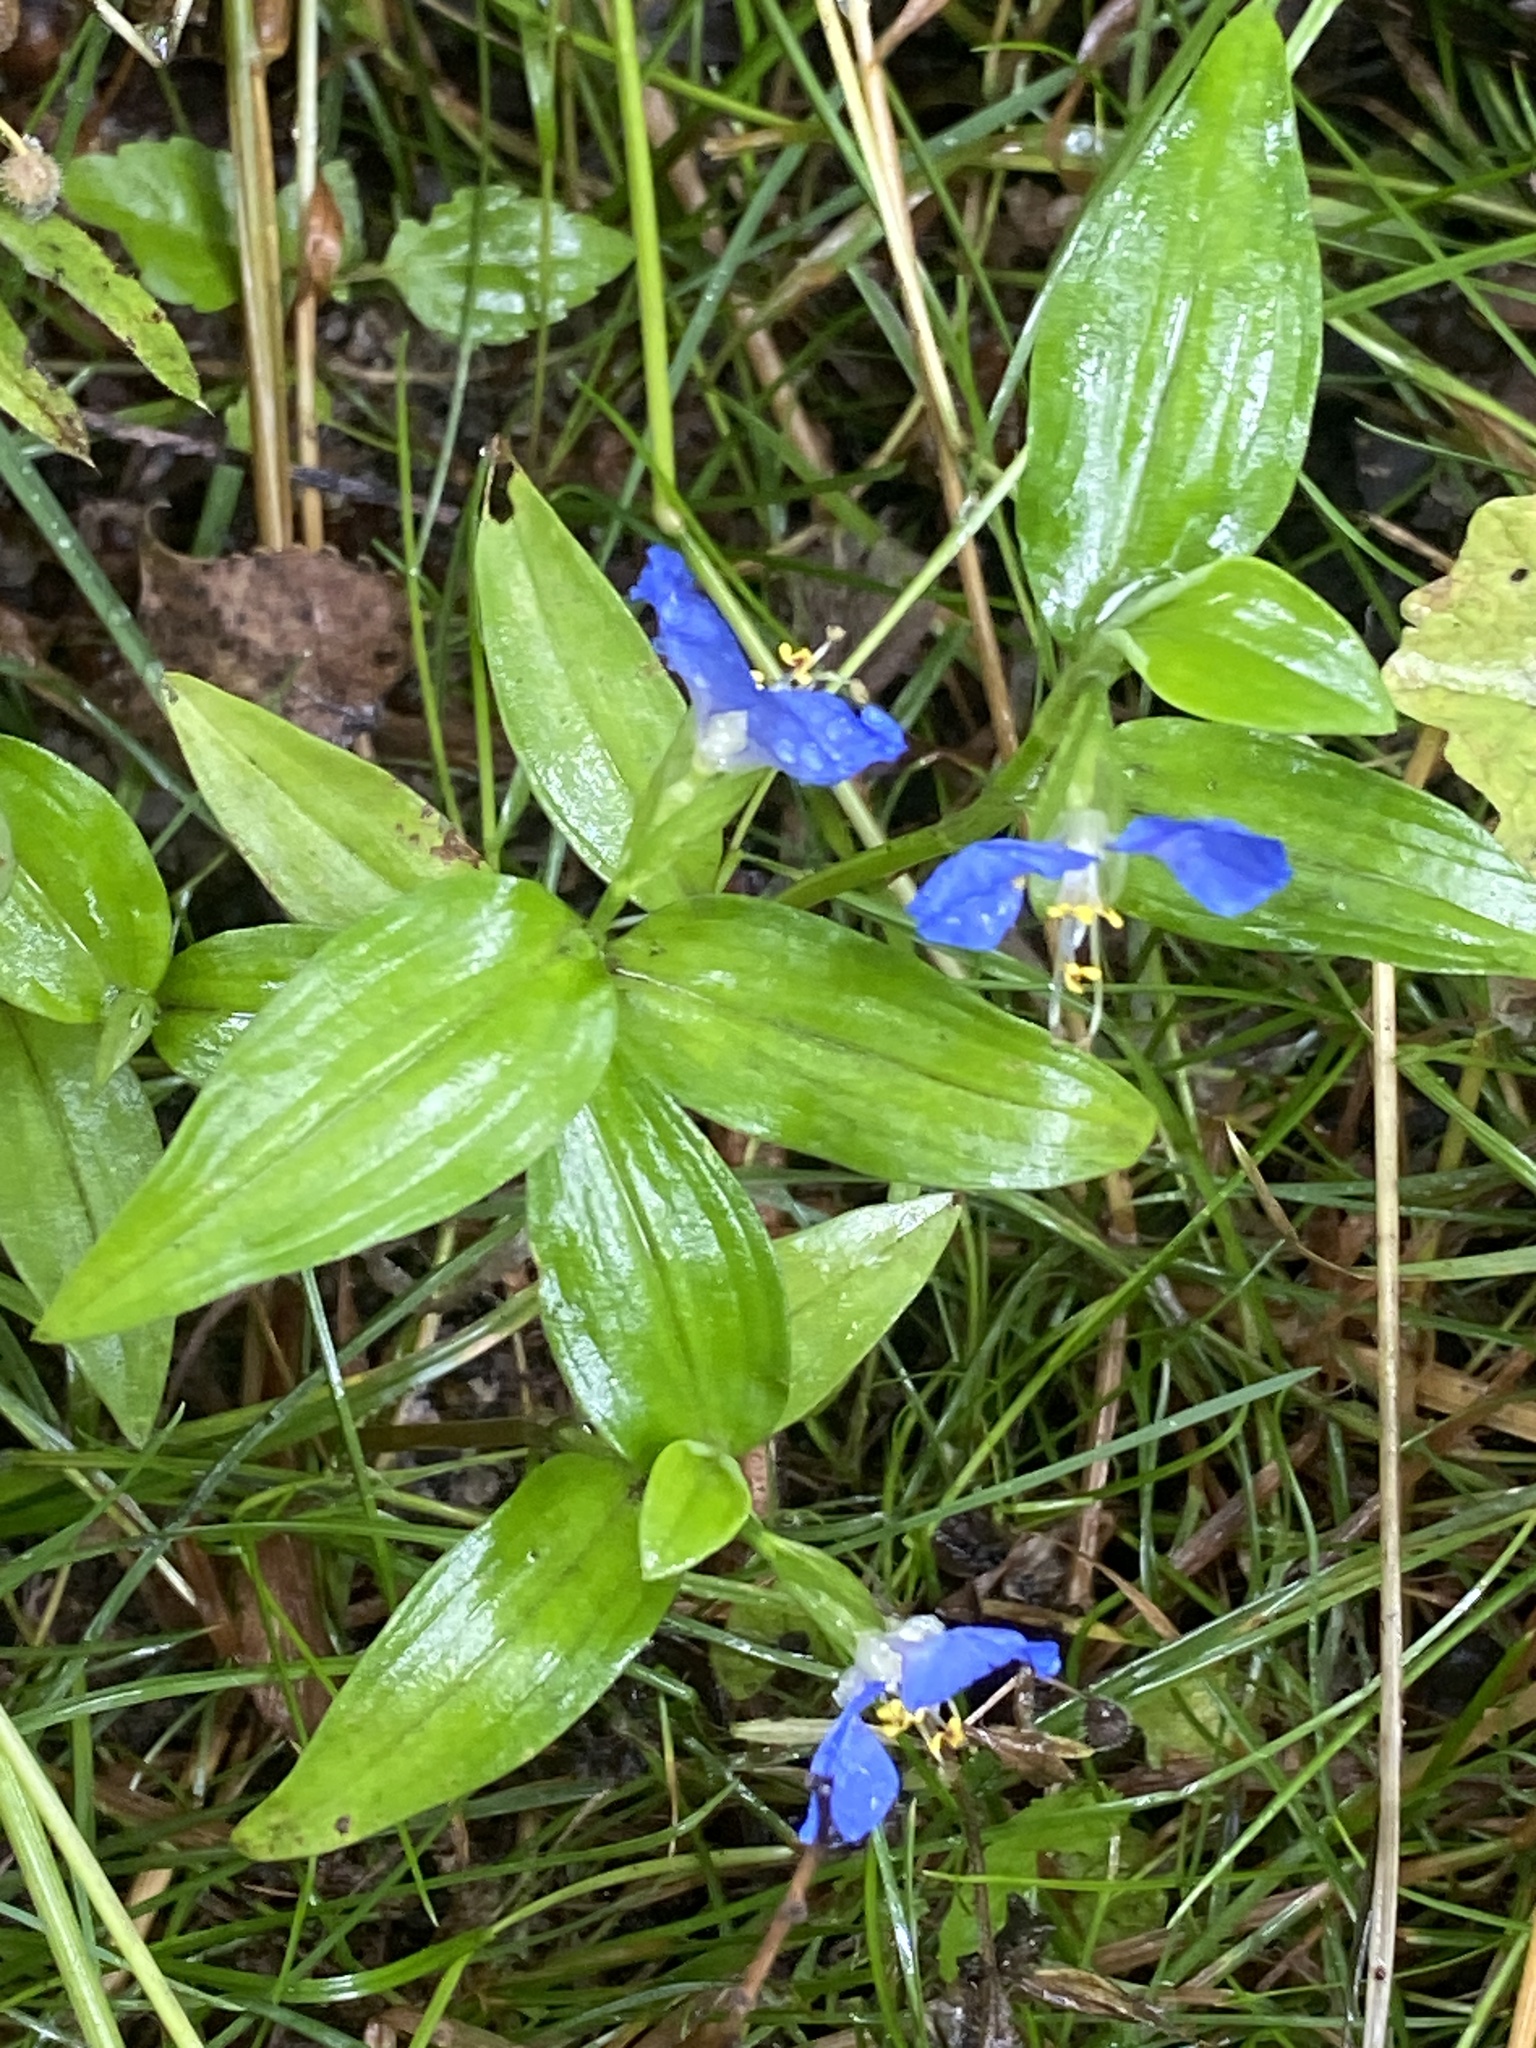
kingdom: Plantae
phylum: Tracheophyta
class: Liliopsida
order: Commelinales
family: Commelinaceae
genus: Commelina
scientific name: Commelina communis
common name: Asiatic dayflower
